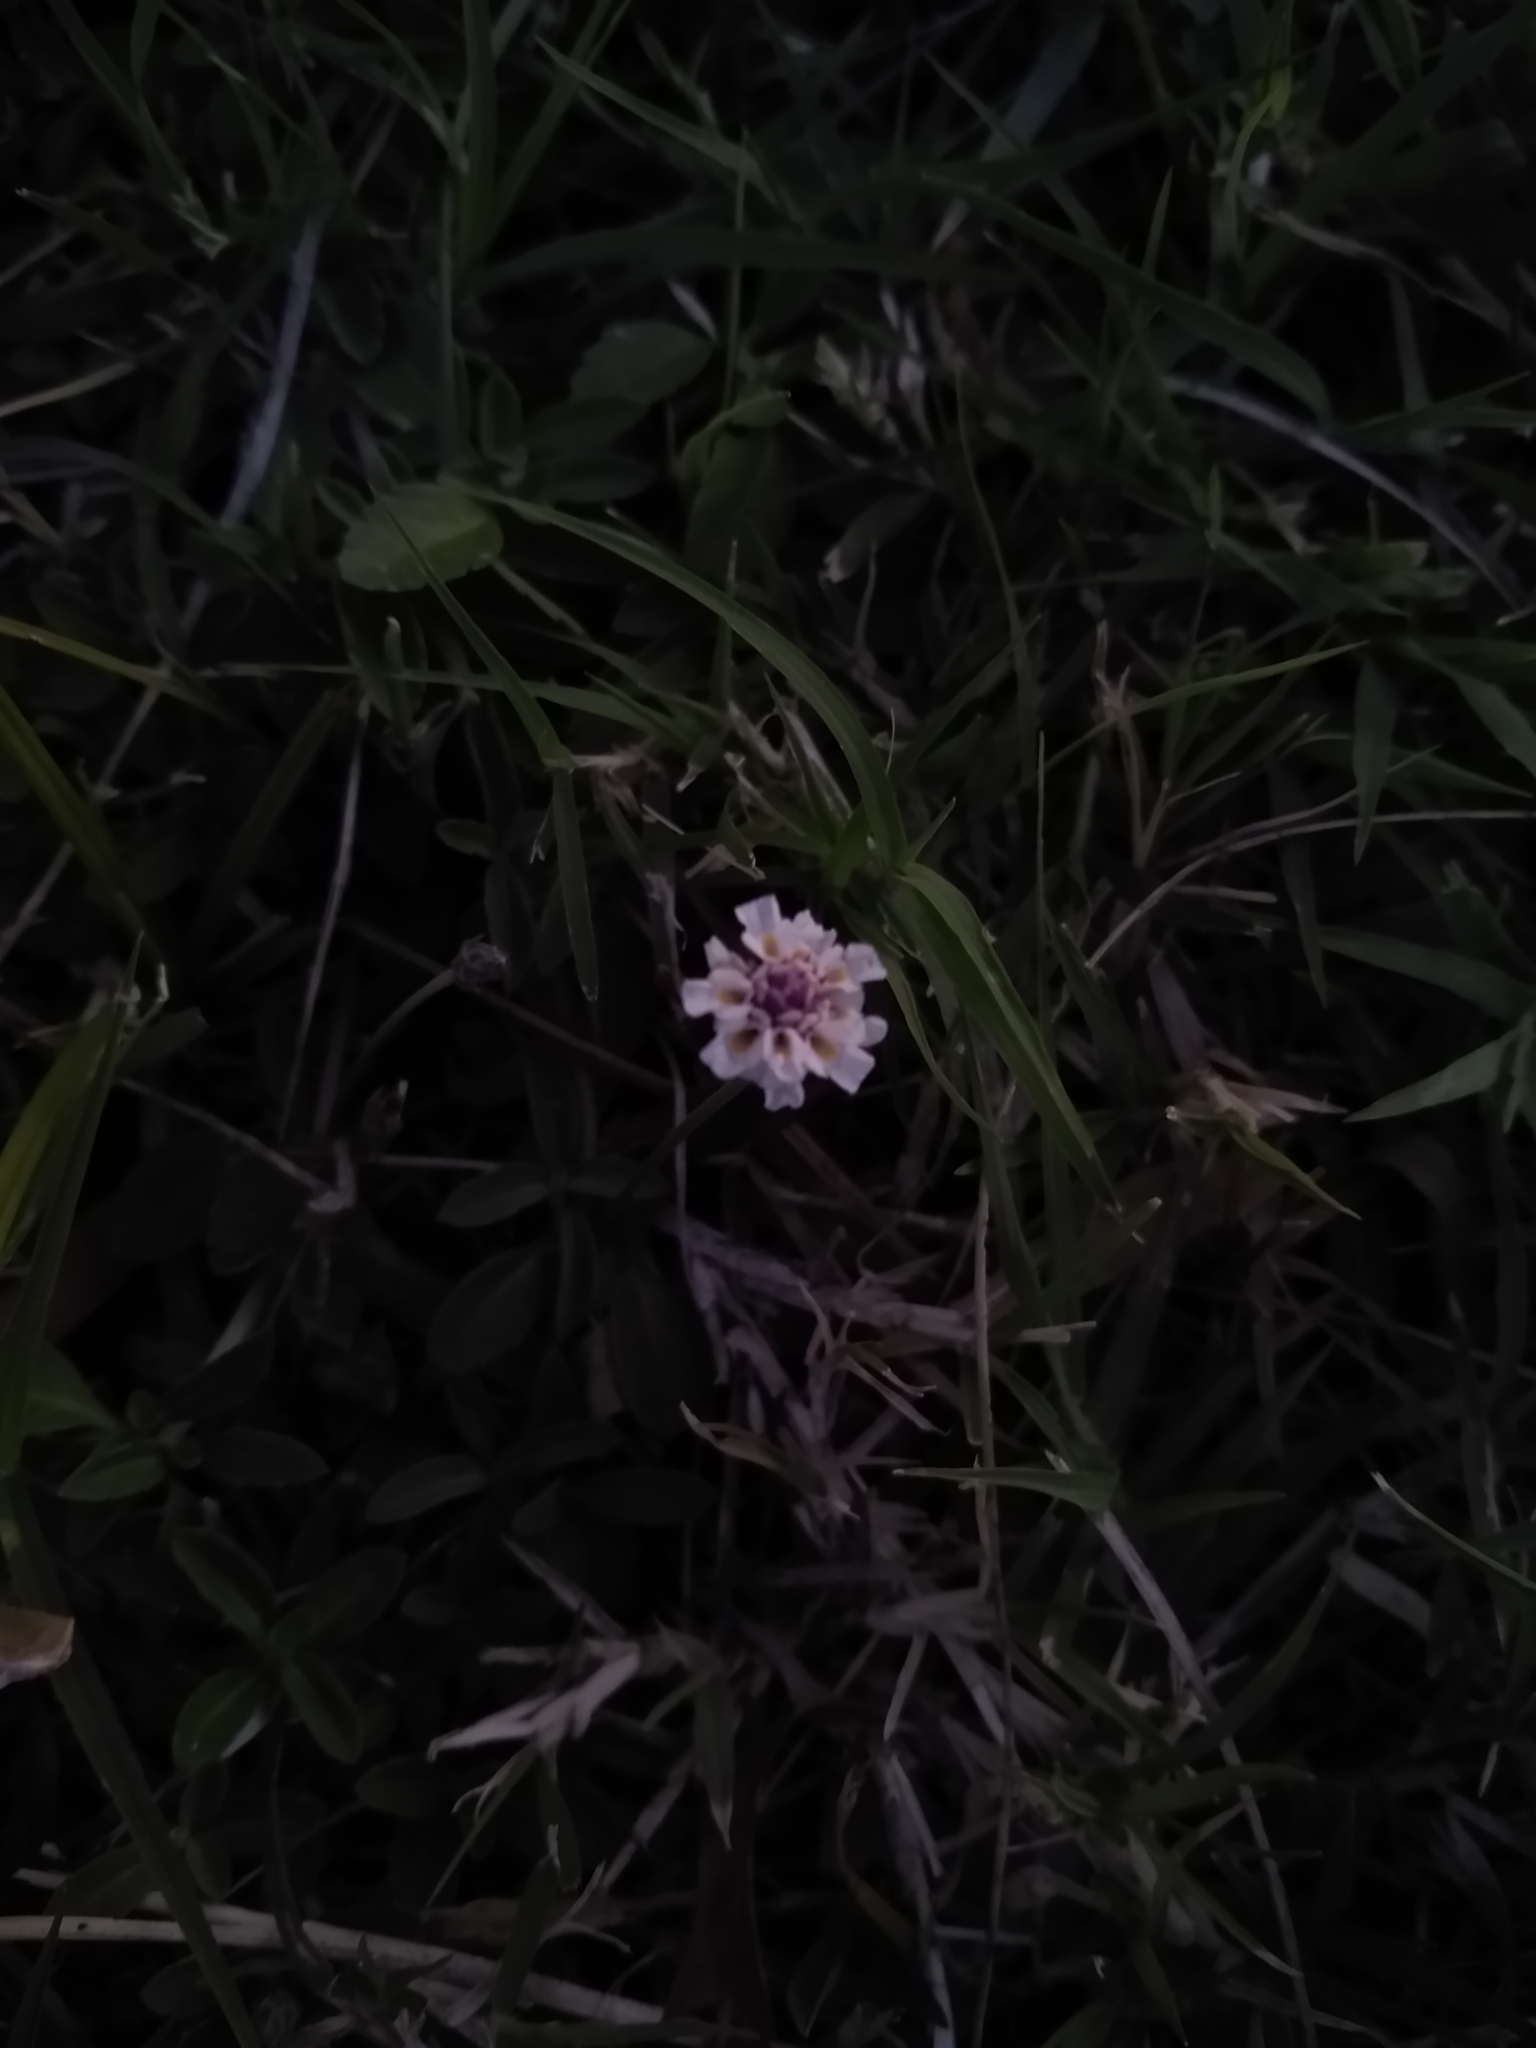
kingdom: Plantae
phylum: Tracheophyta
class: Magnoliopsida
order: Lamiales
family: Verbenaceae
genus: Phyla
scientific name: Phyla nodiflora
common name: Frogfruit
